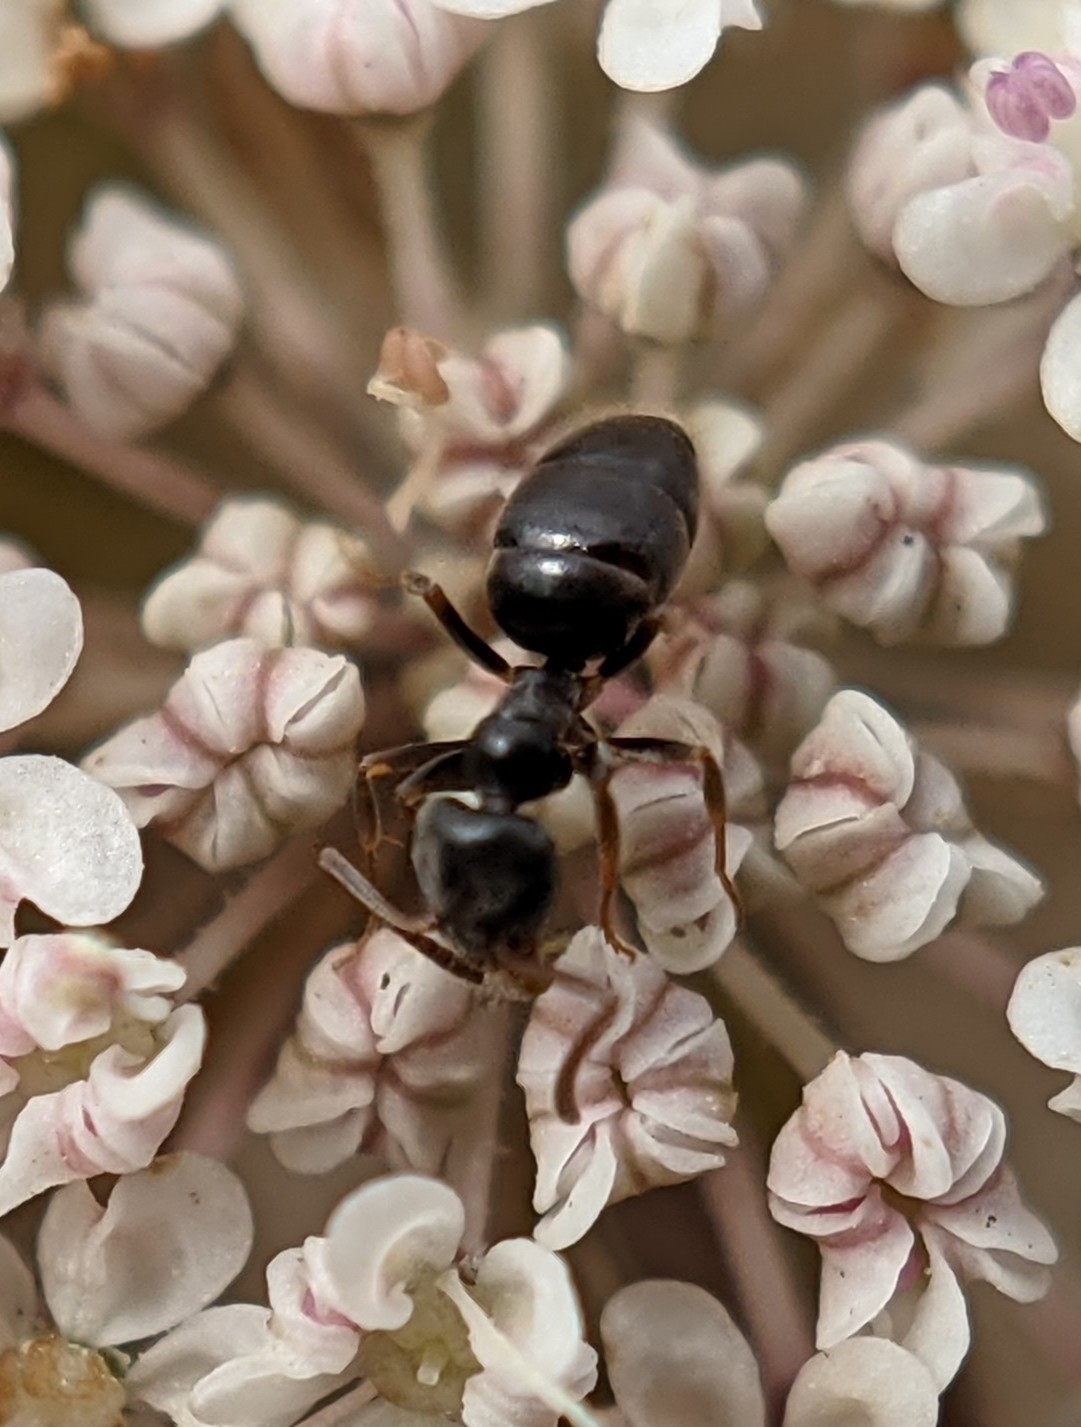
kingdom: Animalia
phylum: Arthropoda
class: Insecta
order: Hymenoptera
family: Formicidae
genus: Tapinoma
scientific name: Tapinoma sessile
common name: Odorous house ant
